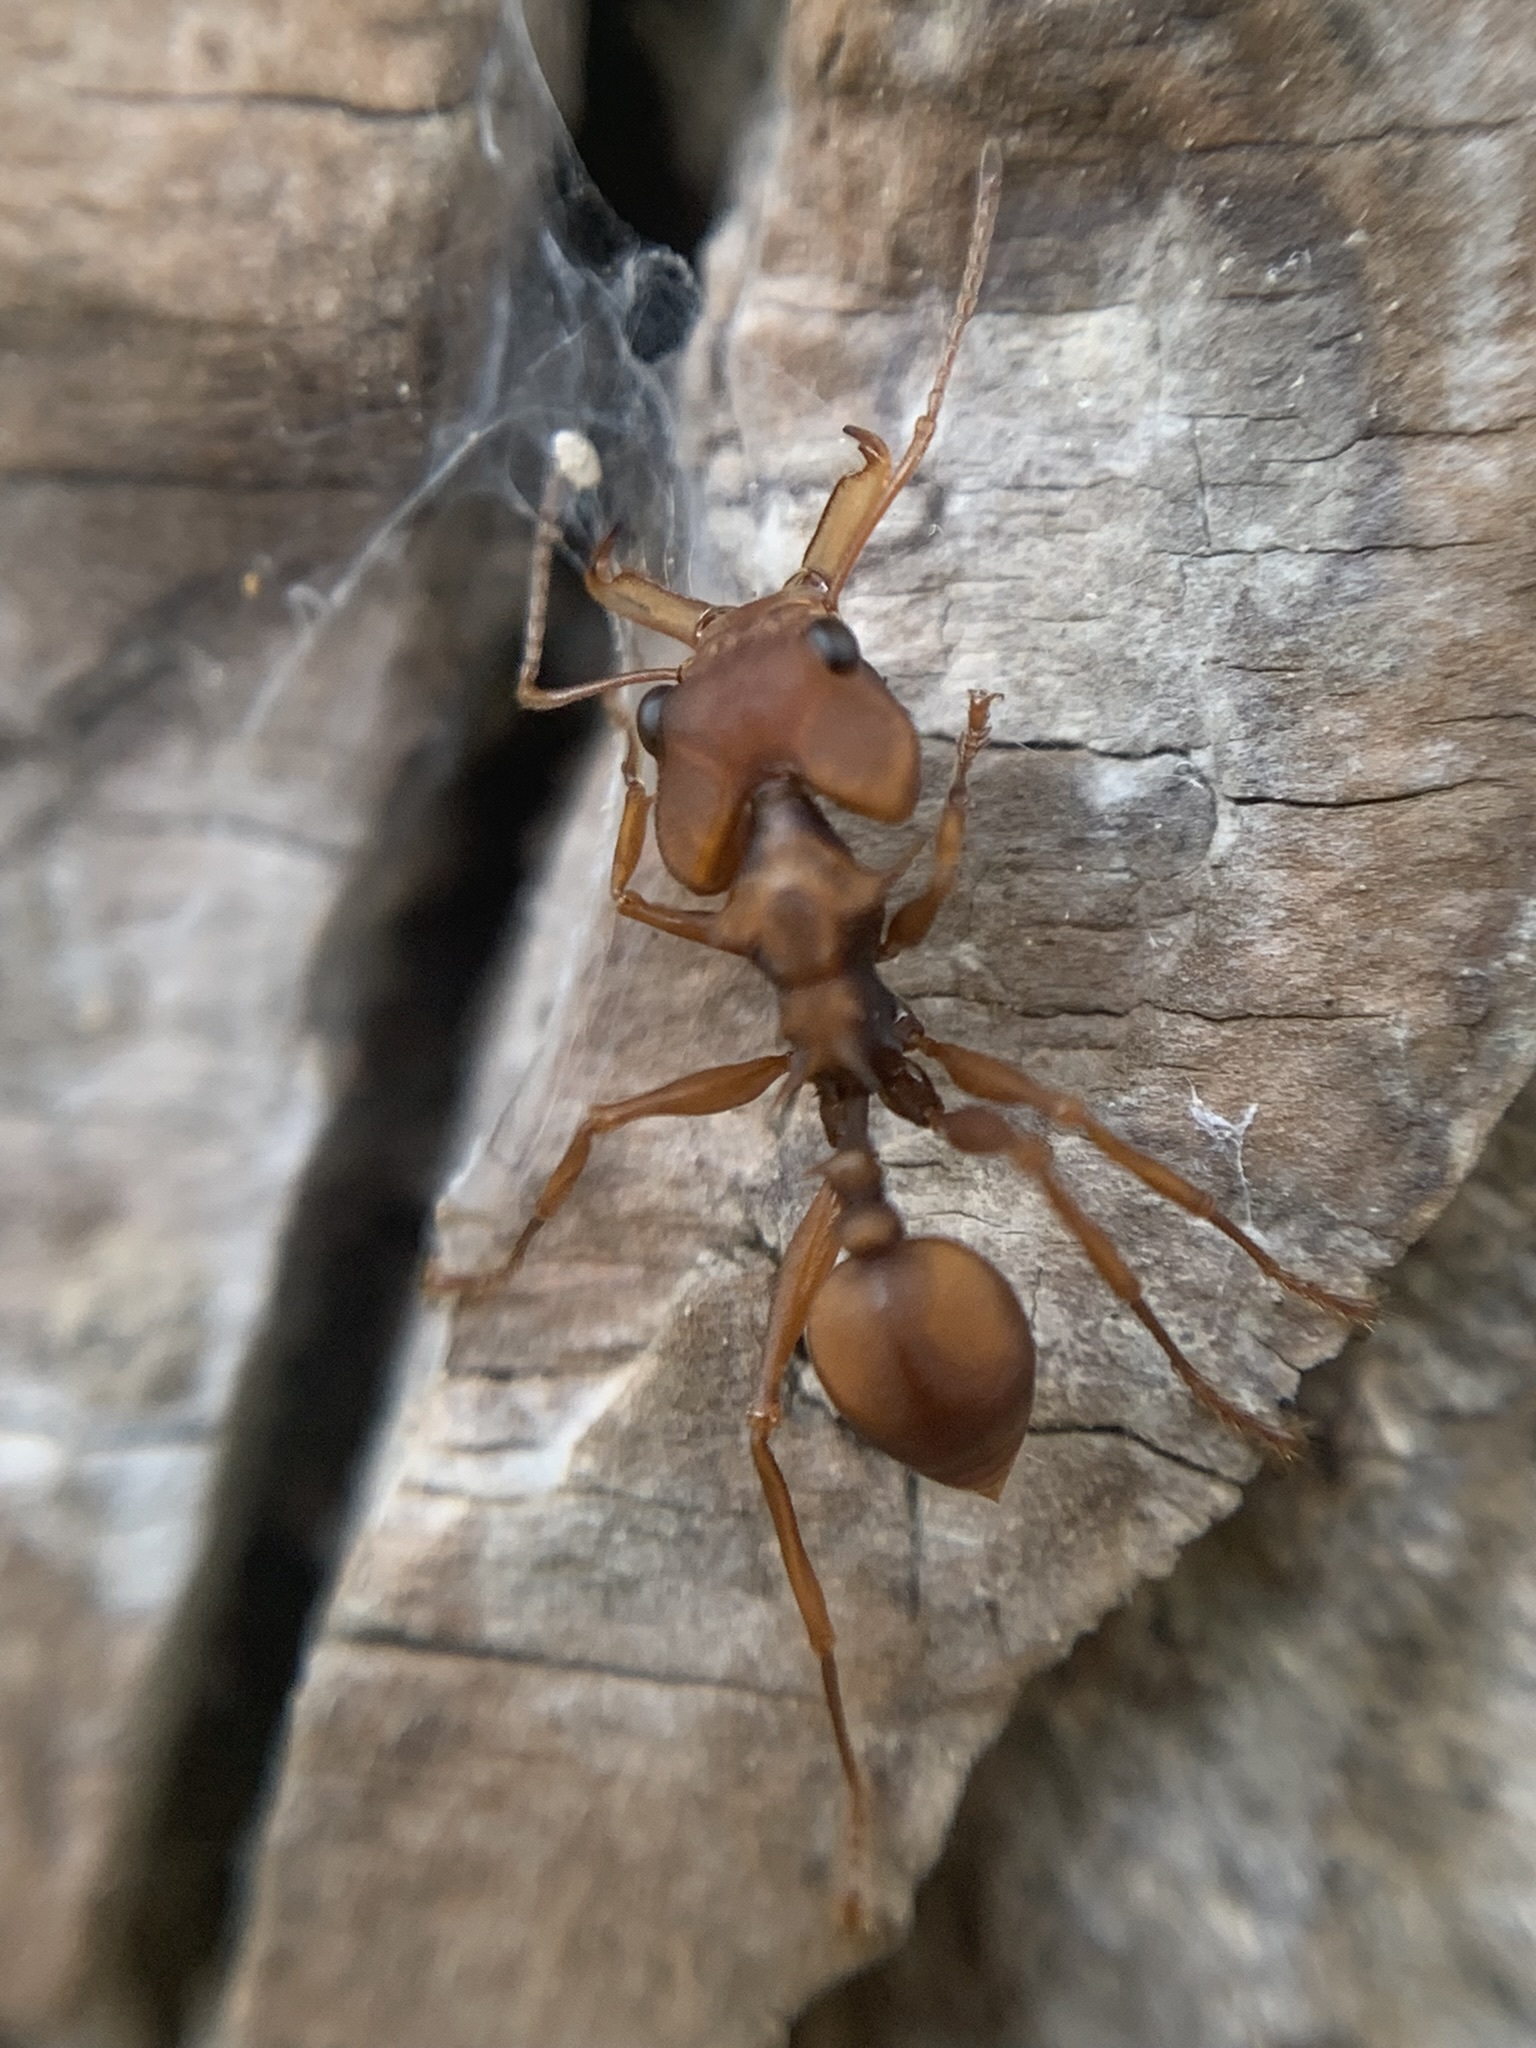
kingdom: Animalia
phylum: Arthropoda
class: Insecta
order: Hymenoptera
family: Formicidae
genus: Daceton
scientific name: Daceton armigerum
